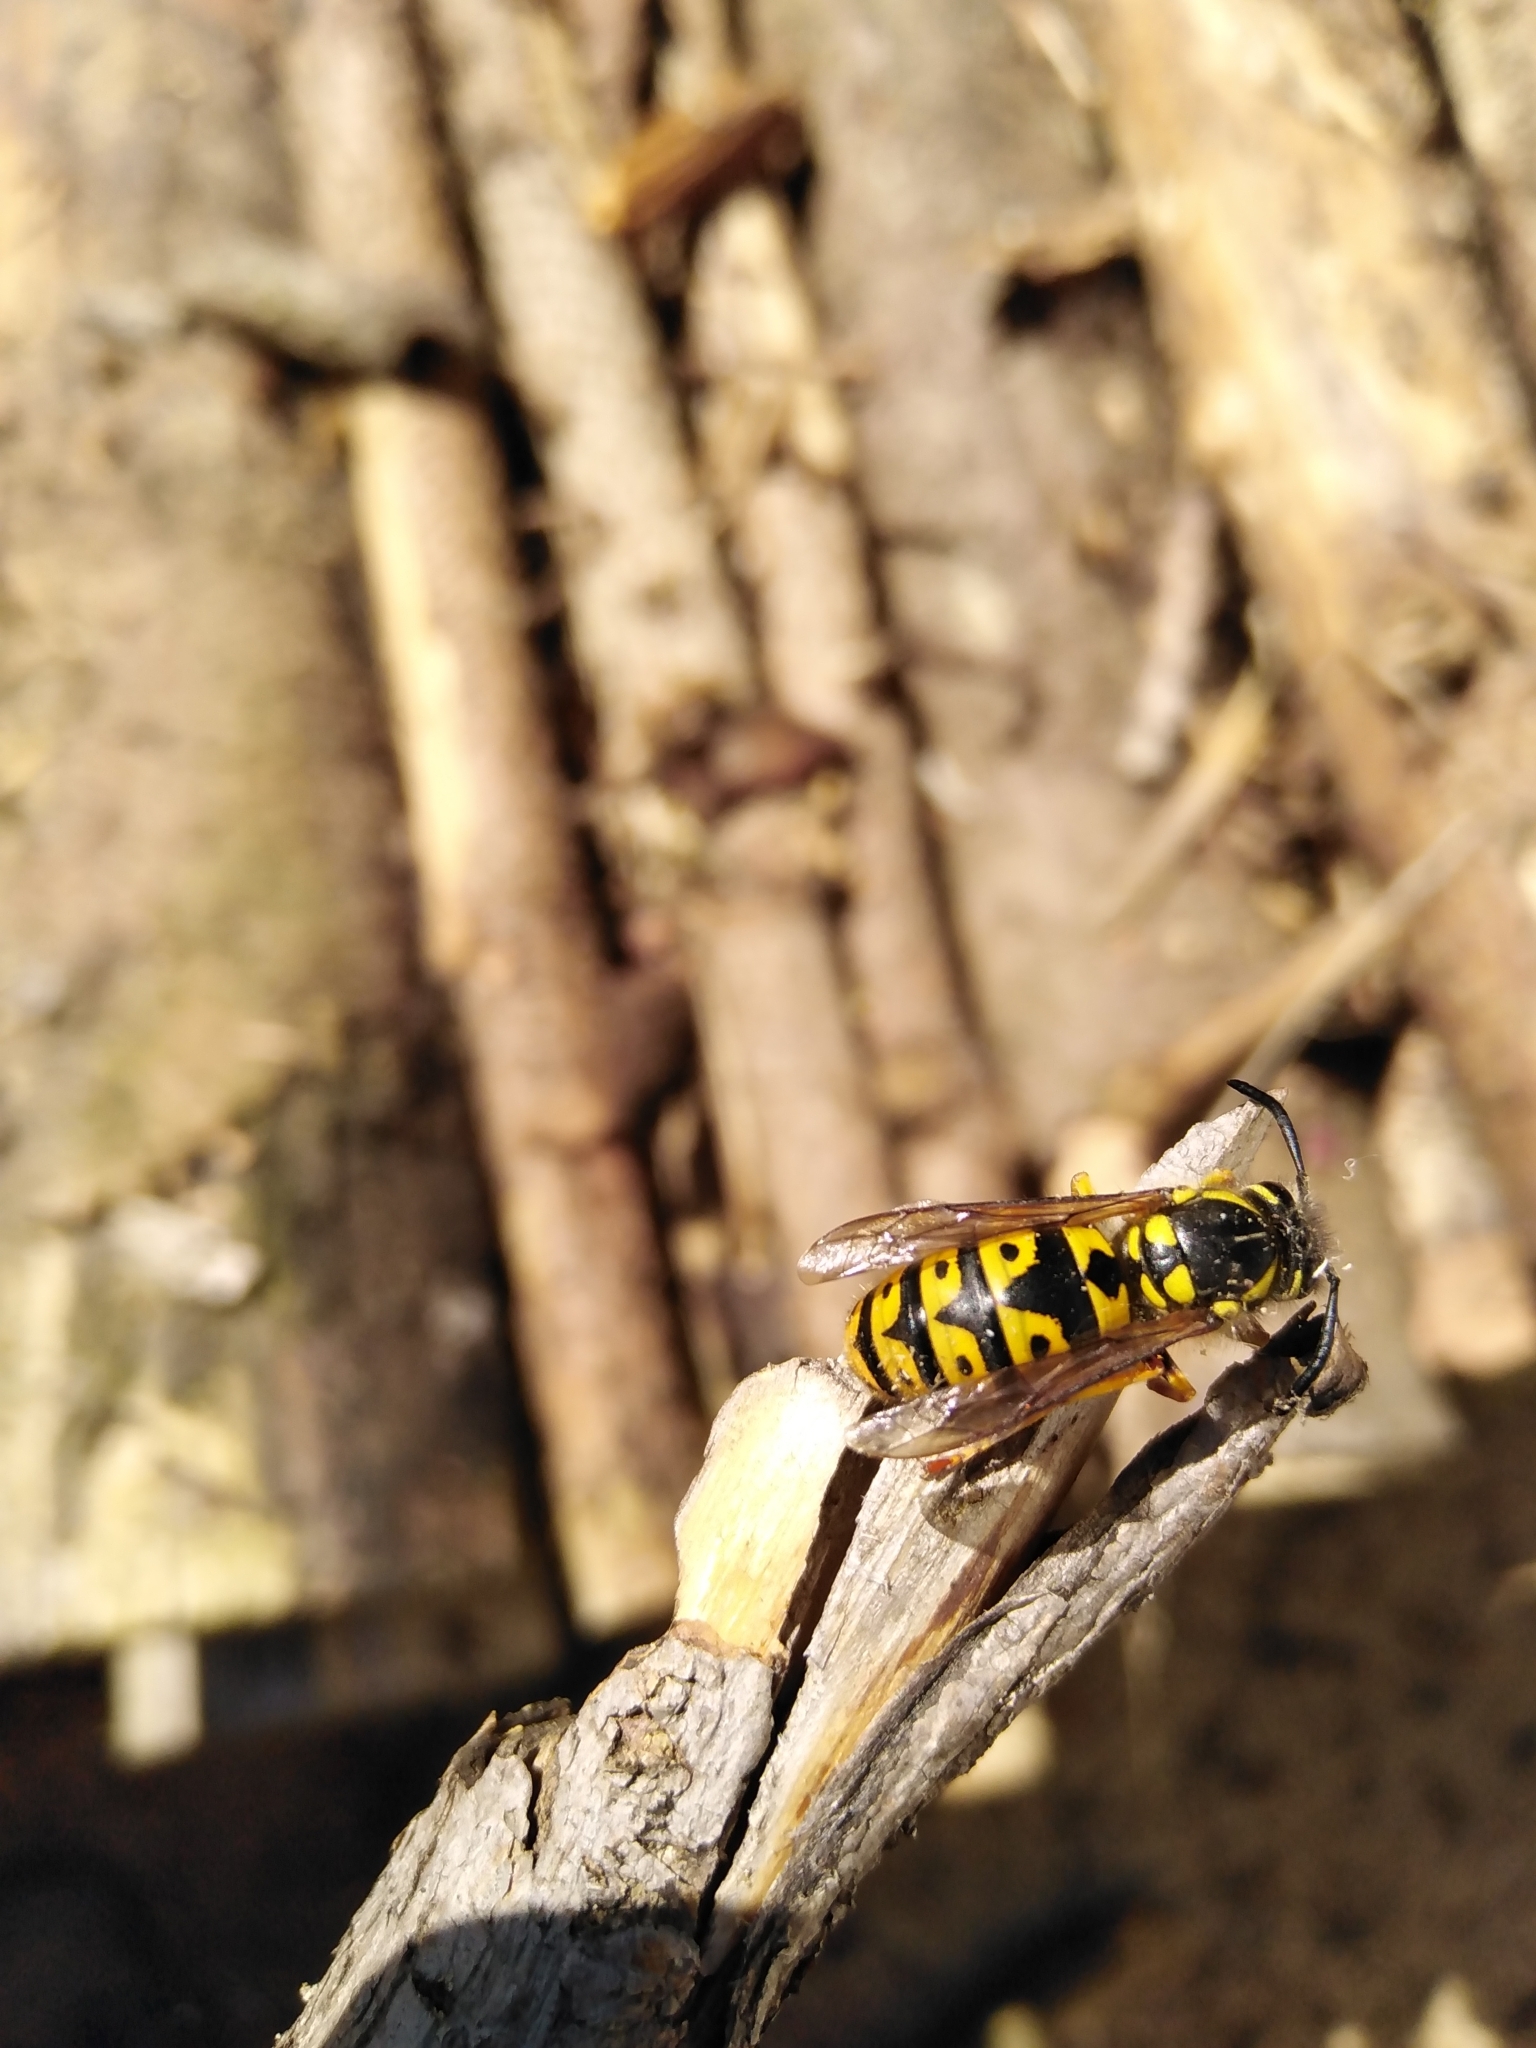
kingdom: Animalia
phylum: Arthropoda
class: Insecta
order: Hymenoptera
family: Vespidae
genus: Vespula
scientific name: Vespula germanica
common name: German wasp
